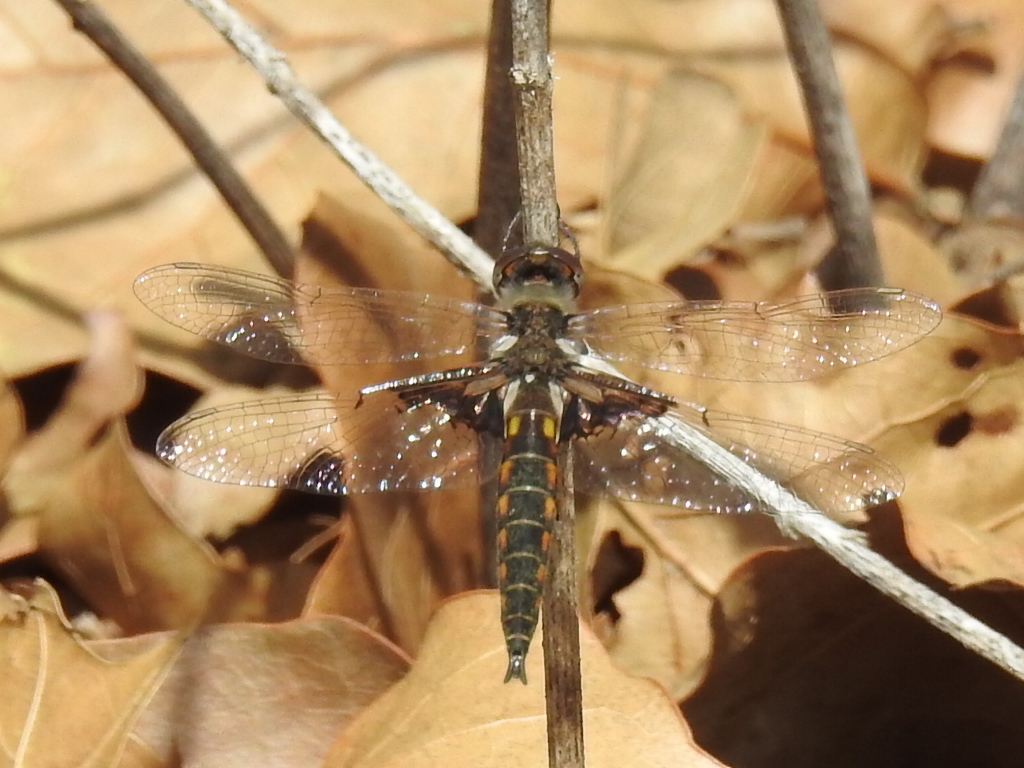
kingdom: Animalia
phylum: Arthropoda
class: Insecta
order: Odonata
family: Corduliidae
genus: Epitheca
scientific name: Epitheca semiaquea
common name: Mantled baskettail
